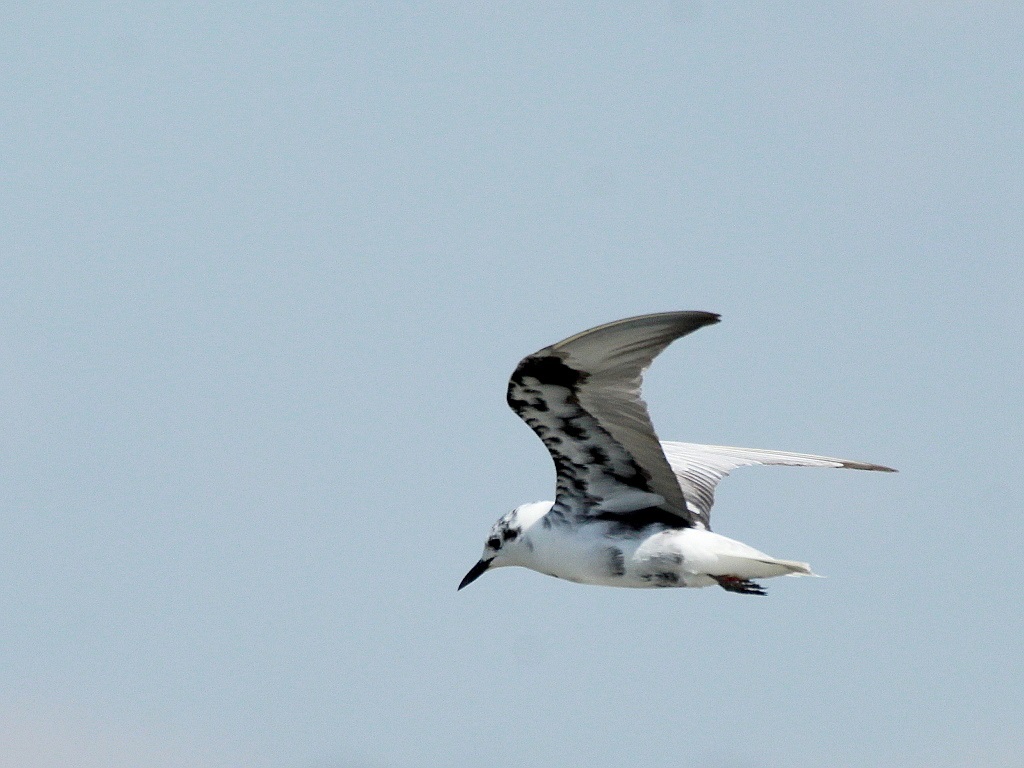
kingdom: Animalia
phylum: Chordata
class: Aves
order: Charadriiformes
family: Laridae
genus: Chlidonias
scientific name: Chlidonias leucopterus
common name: White-winged tern
